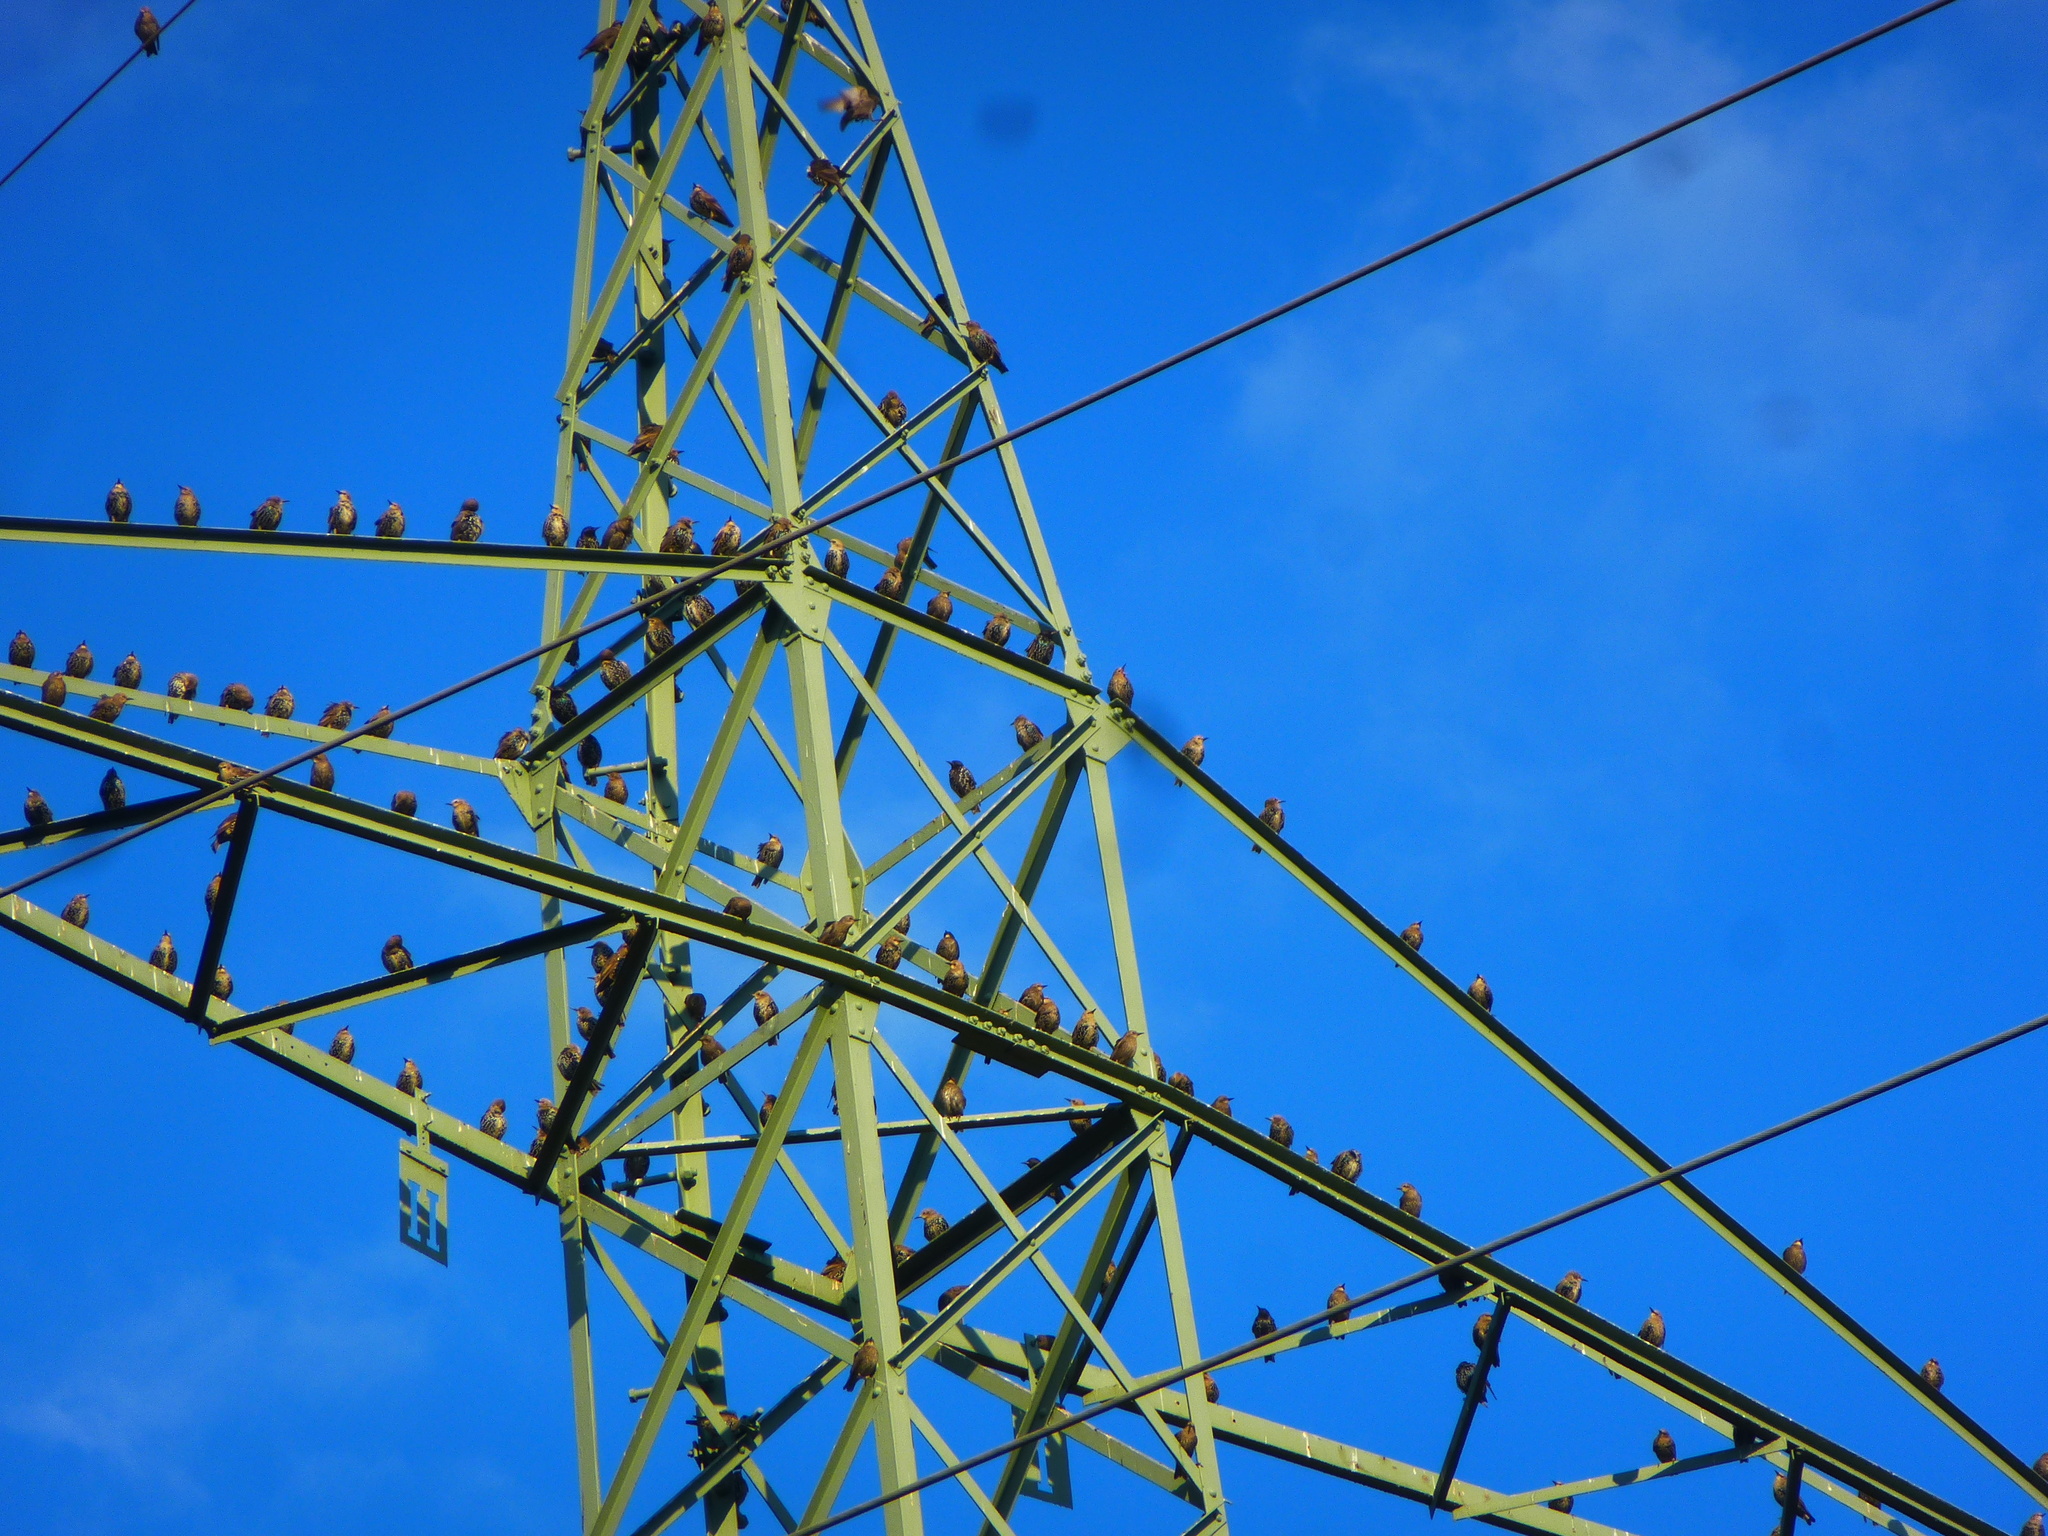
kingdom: Animalia
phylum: Chordata
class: Aves
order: Passeriformes
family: Sturnidae
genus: Sturnus
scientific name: Sturnus vulgaris
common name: Common starling
